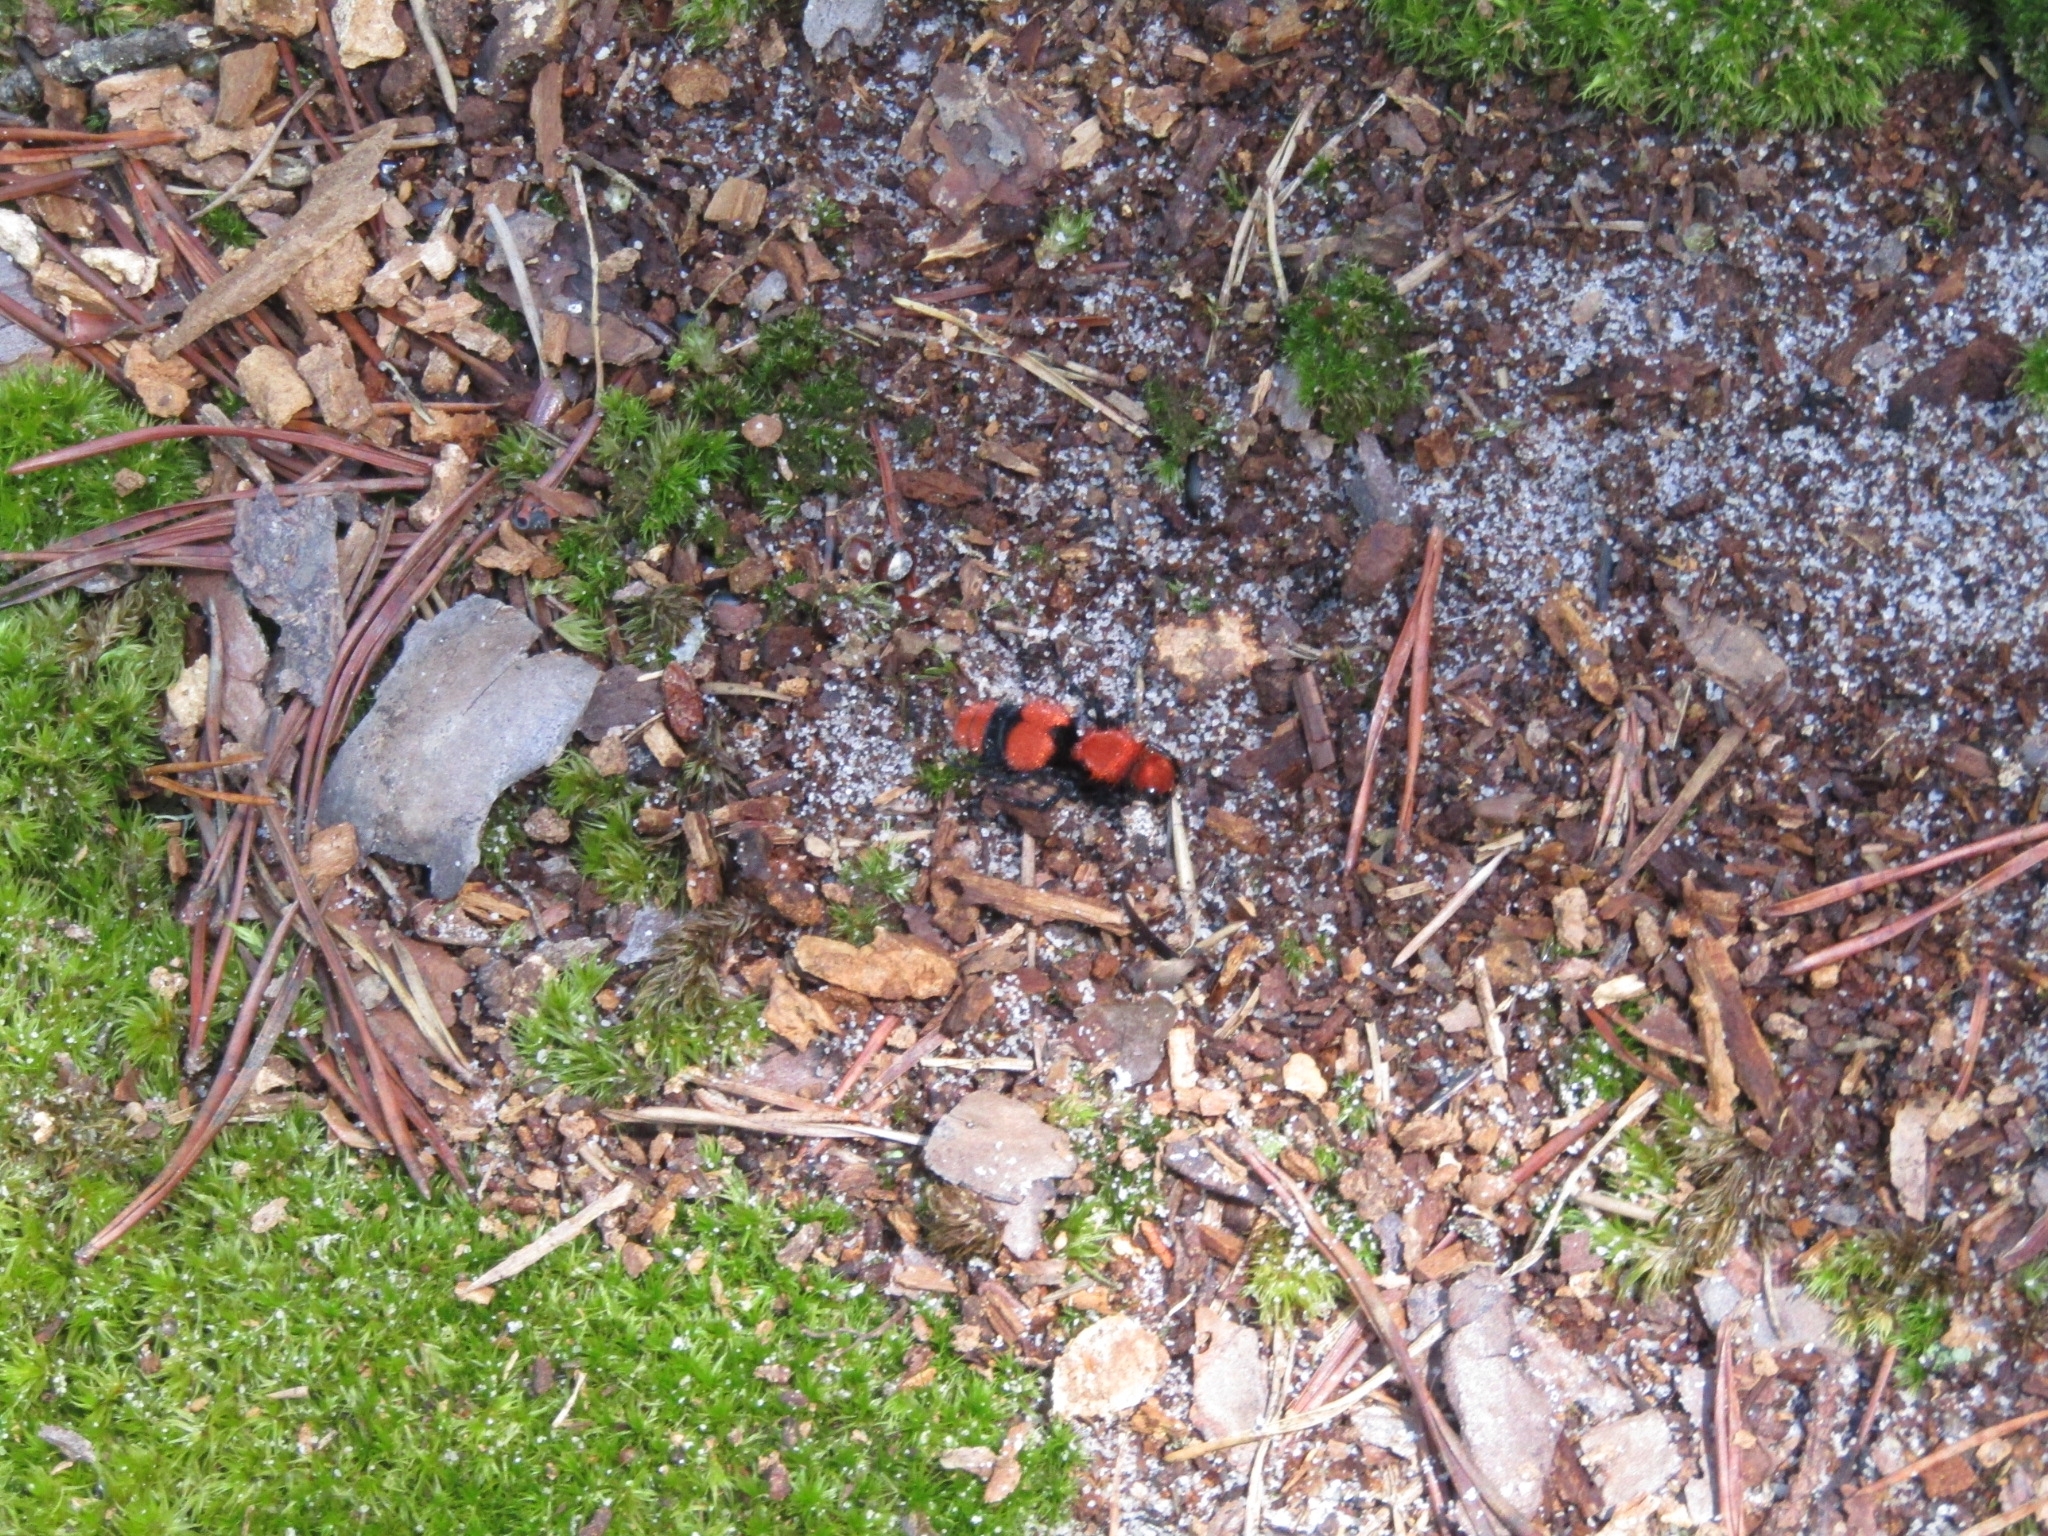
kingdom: Animalia
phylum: Arthropoda
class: Insecta
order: Hymenoptera
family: Mutillidae
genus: Dasymutilla
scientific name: Dasymutilla occidentalis
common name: Common eastern velvet ant
